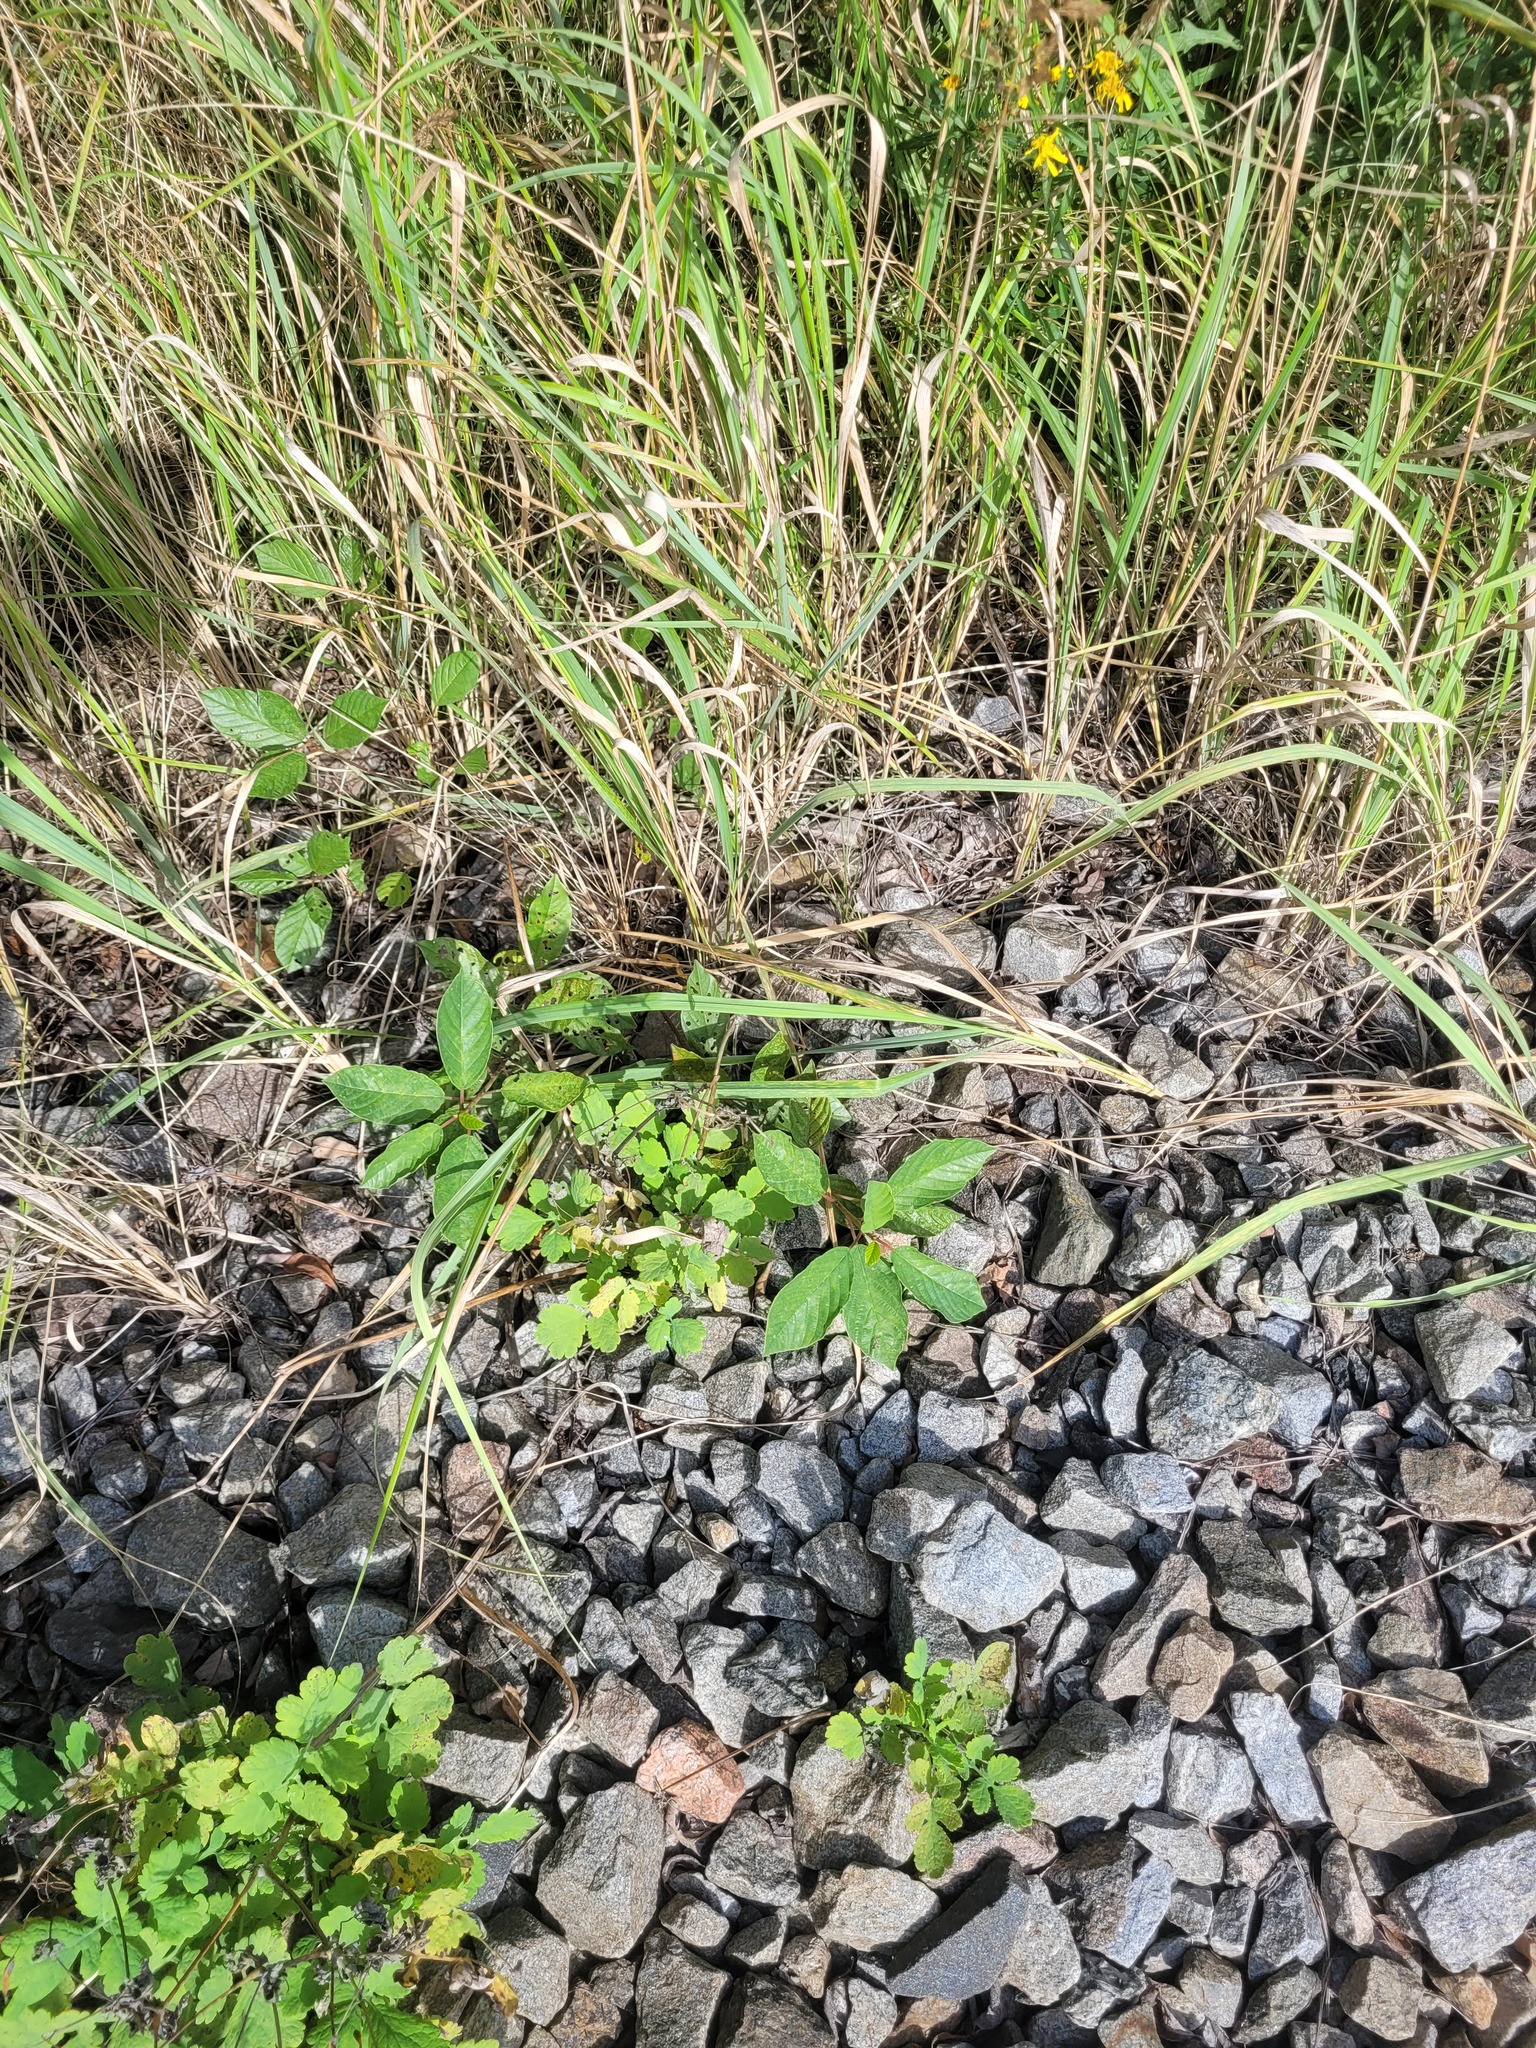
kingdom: Plantae
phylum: Tracheophyta
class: Magnoliopsida
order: Rosales
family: Rhamnaceae
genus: Frangula
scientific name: Frangula alnus
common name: Alder buckthorn
